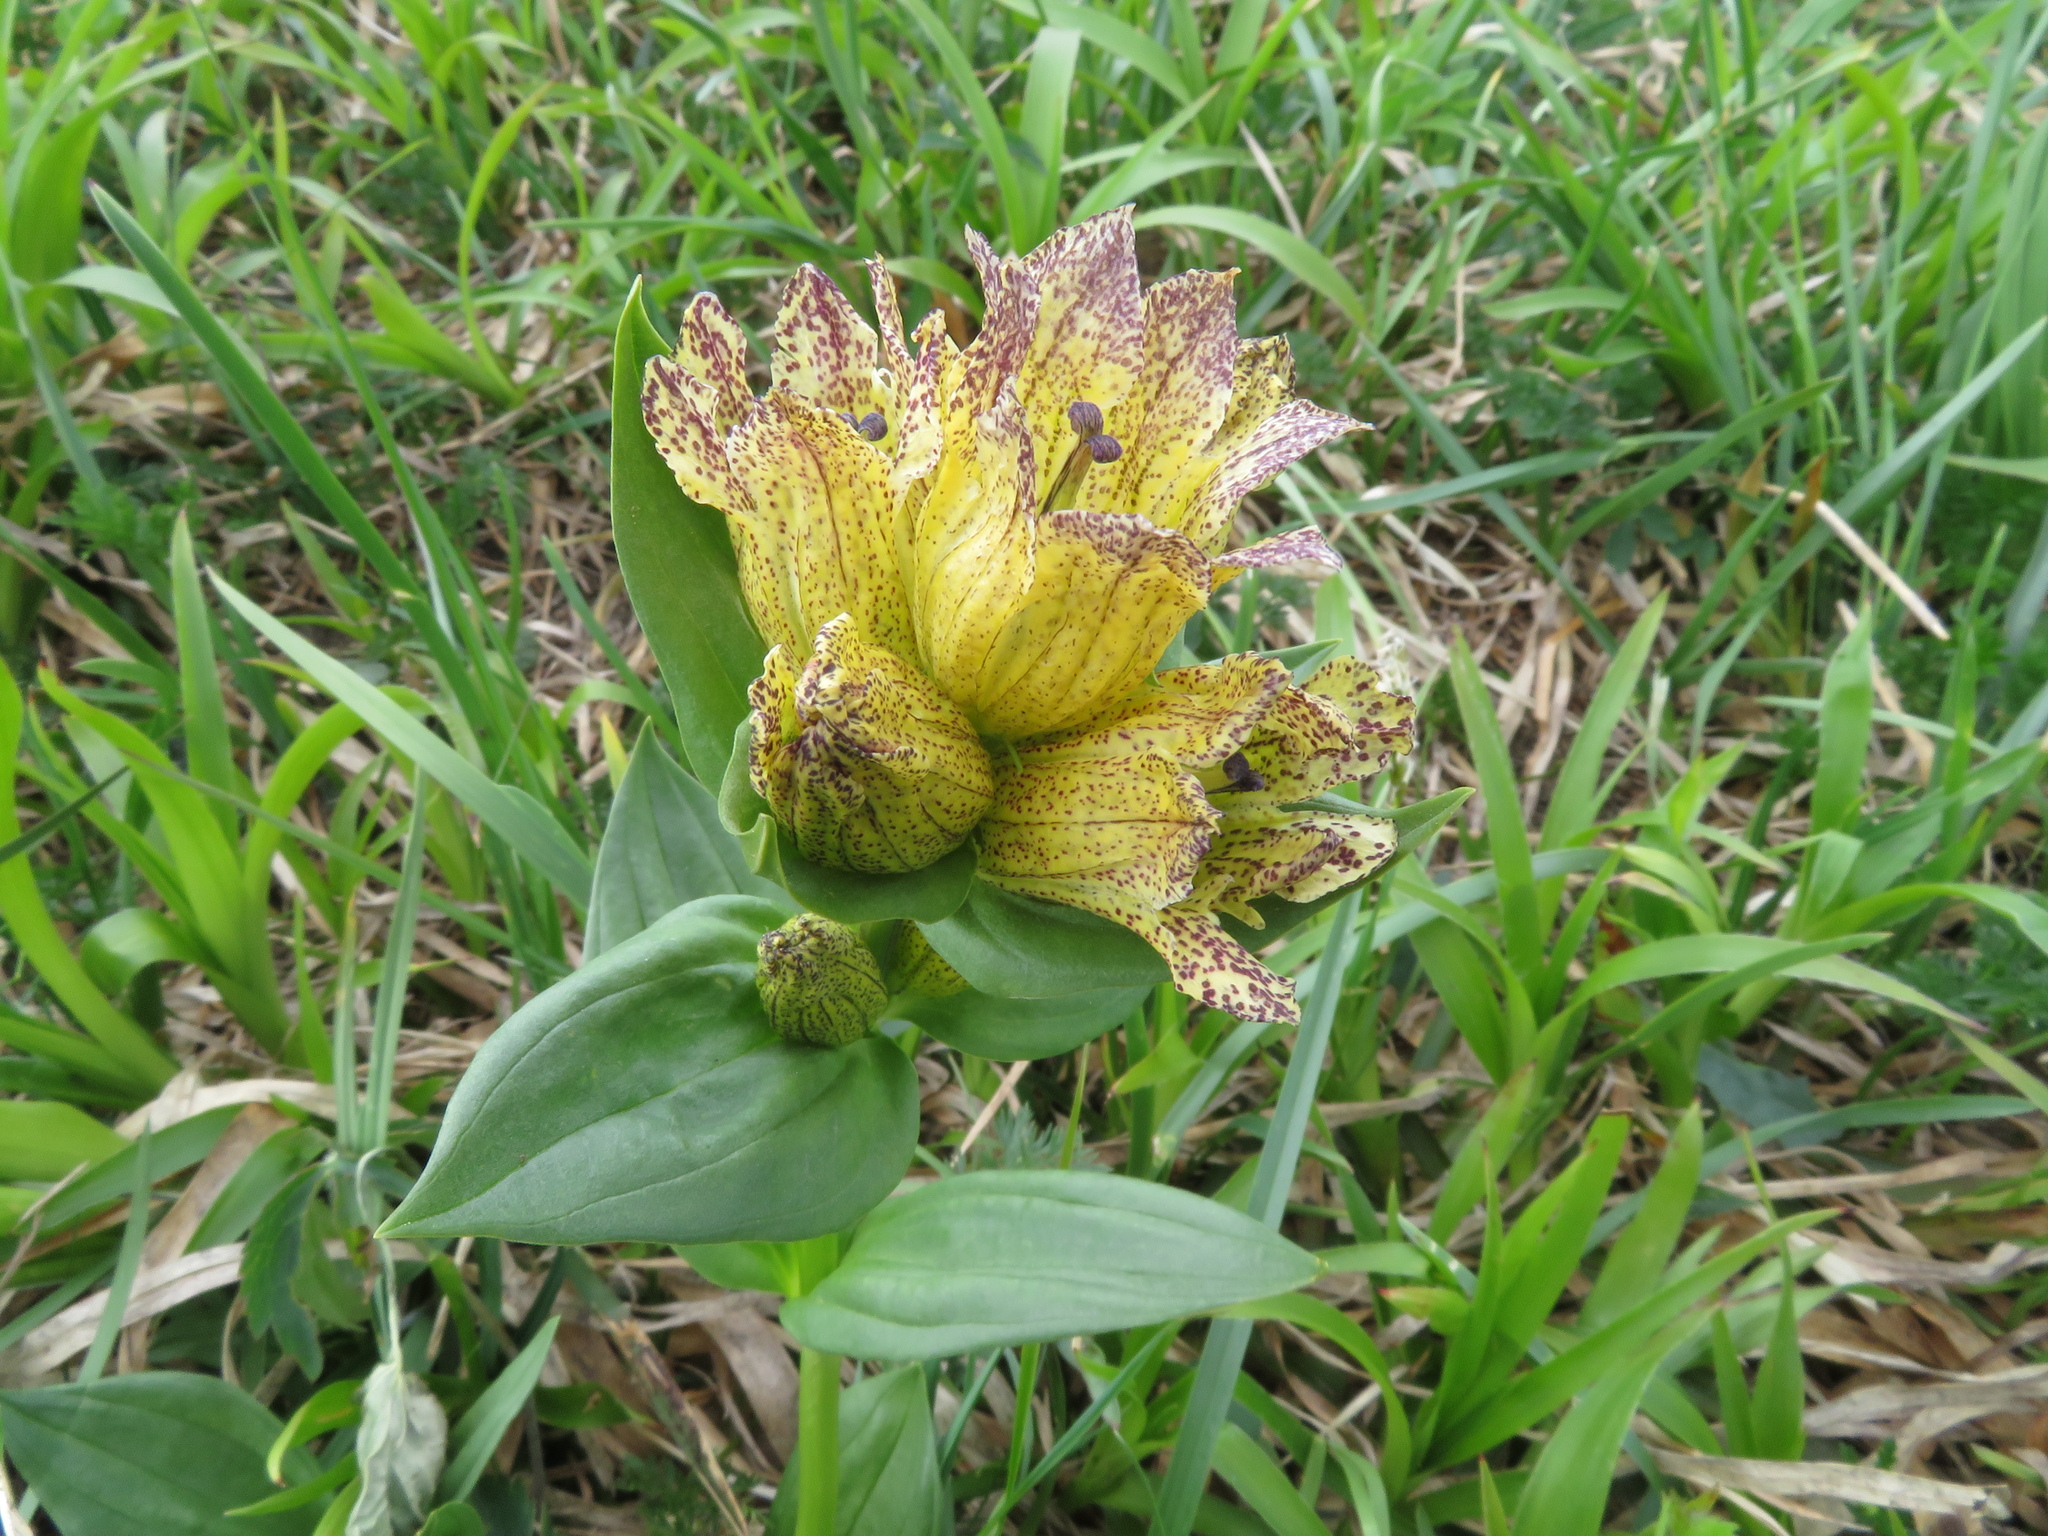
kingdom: Plantae
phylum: Tracheophyta
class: Magnoliopsida
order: Gentianales
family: Gentianaceae
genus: Gentiana
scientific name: Gentiana punctata
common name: Spotted gentian
